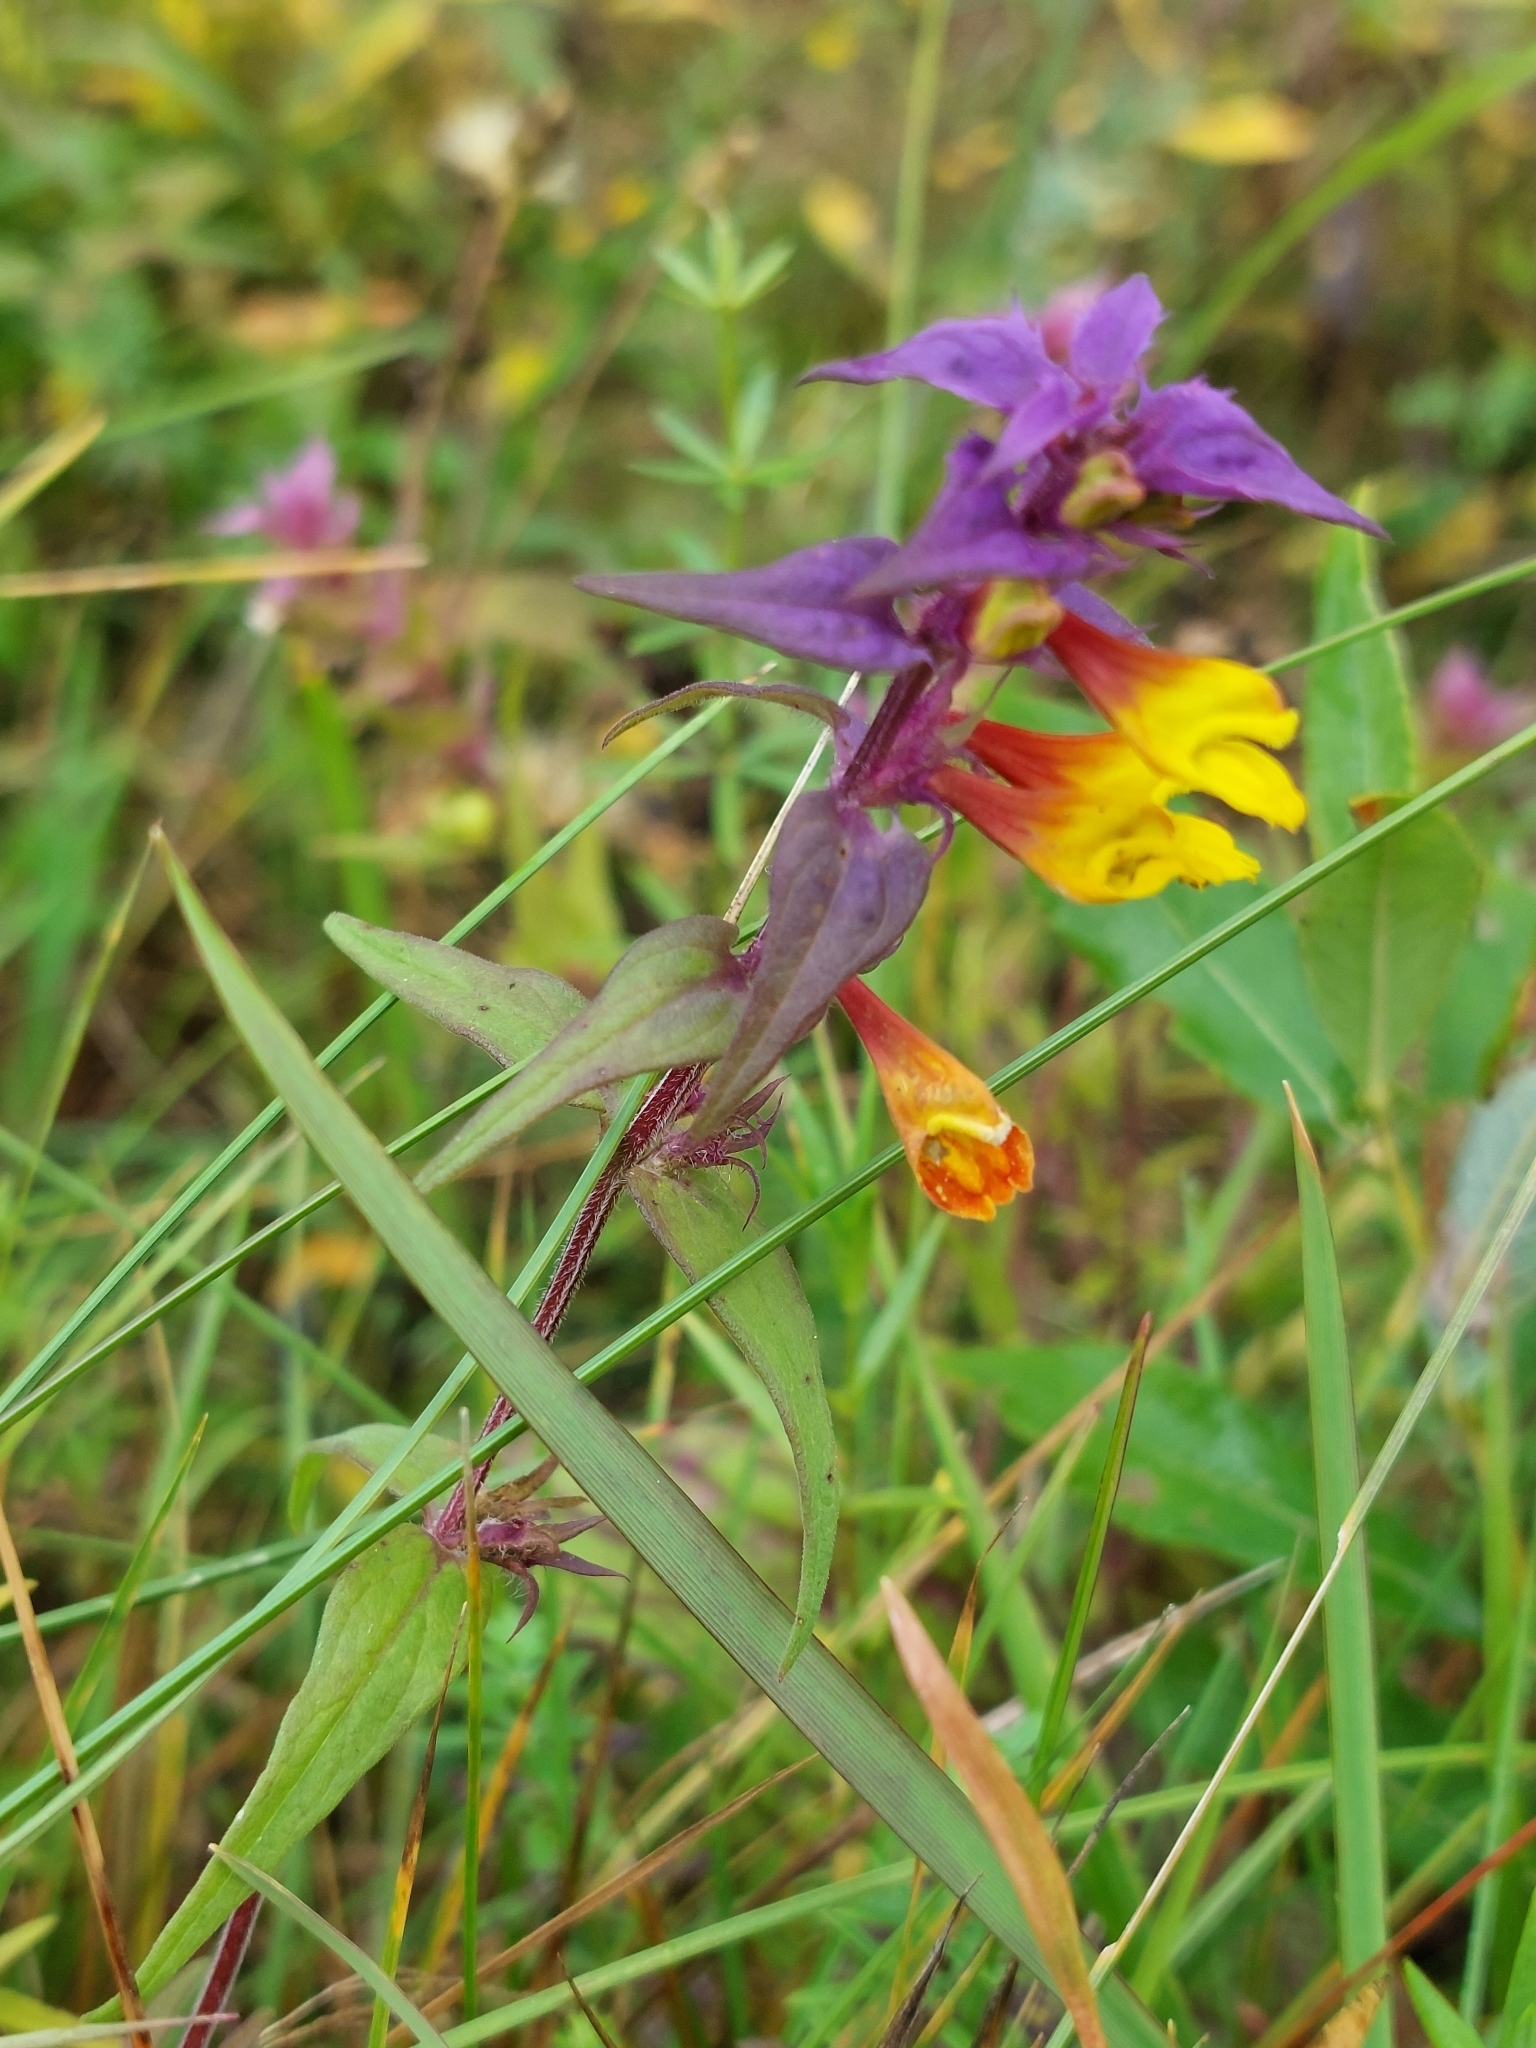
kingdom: Plantae
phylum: Tracheophyta
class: Magnoliopsida
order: Lamiales
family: Orobanchaceae
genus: Melampyrum
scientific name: Melampyrum nemorosum
